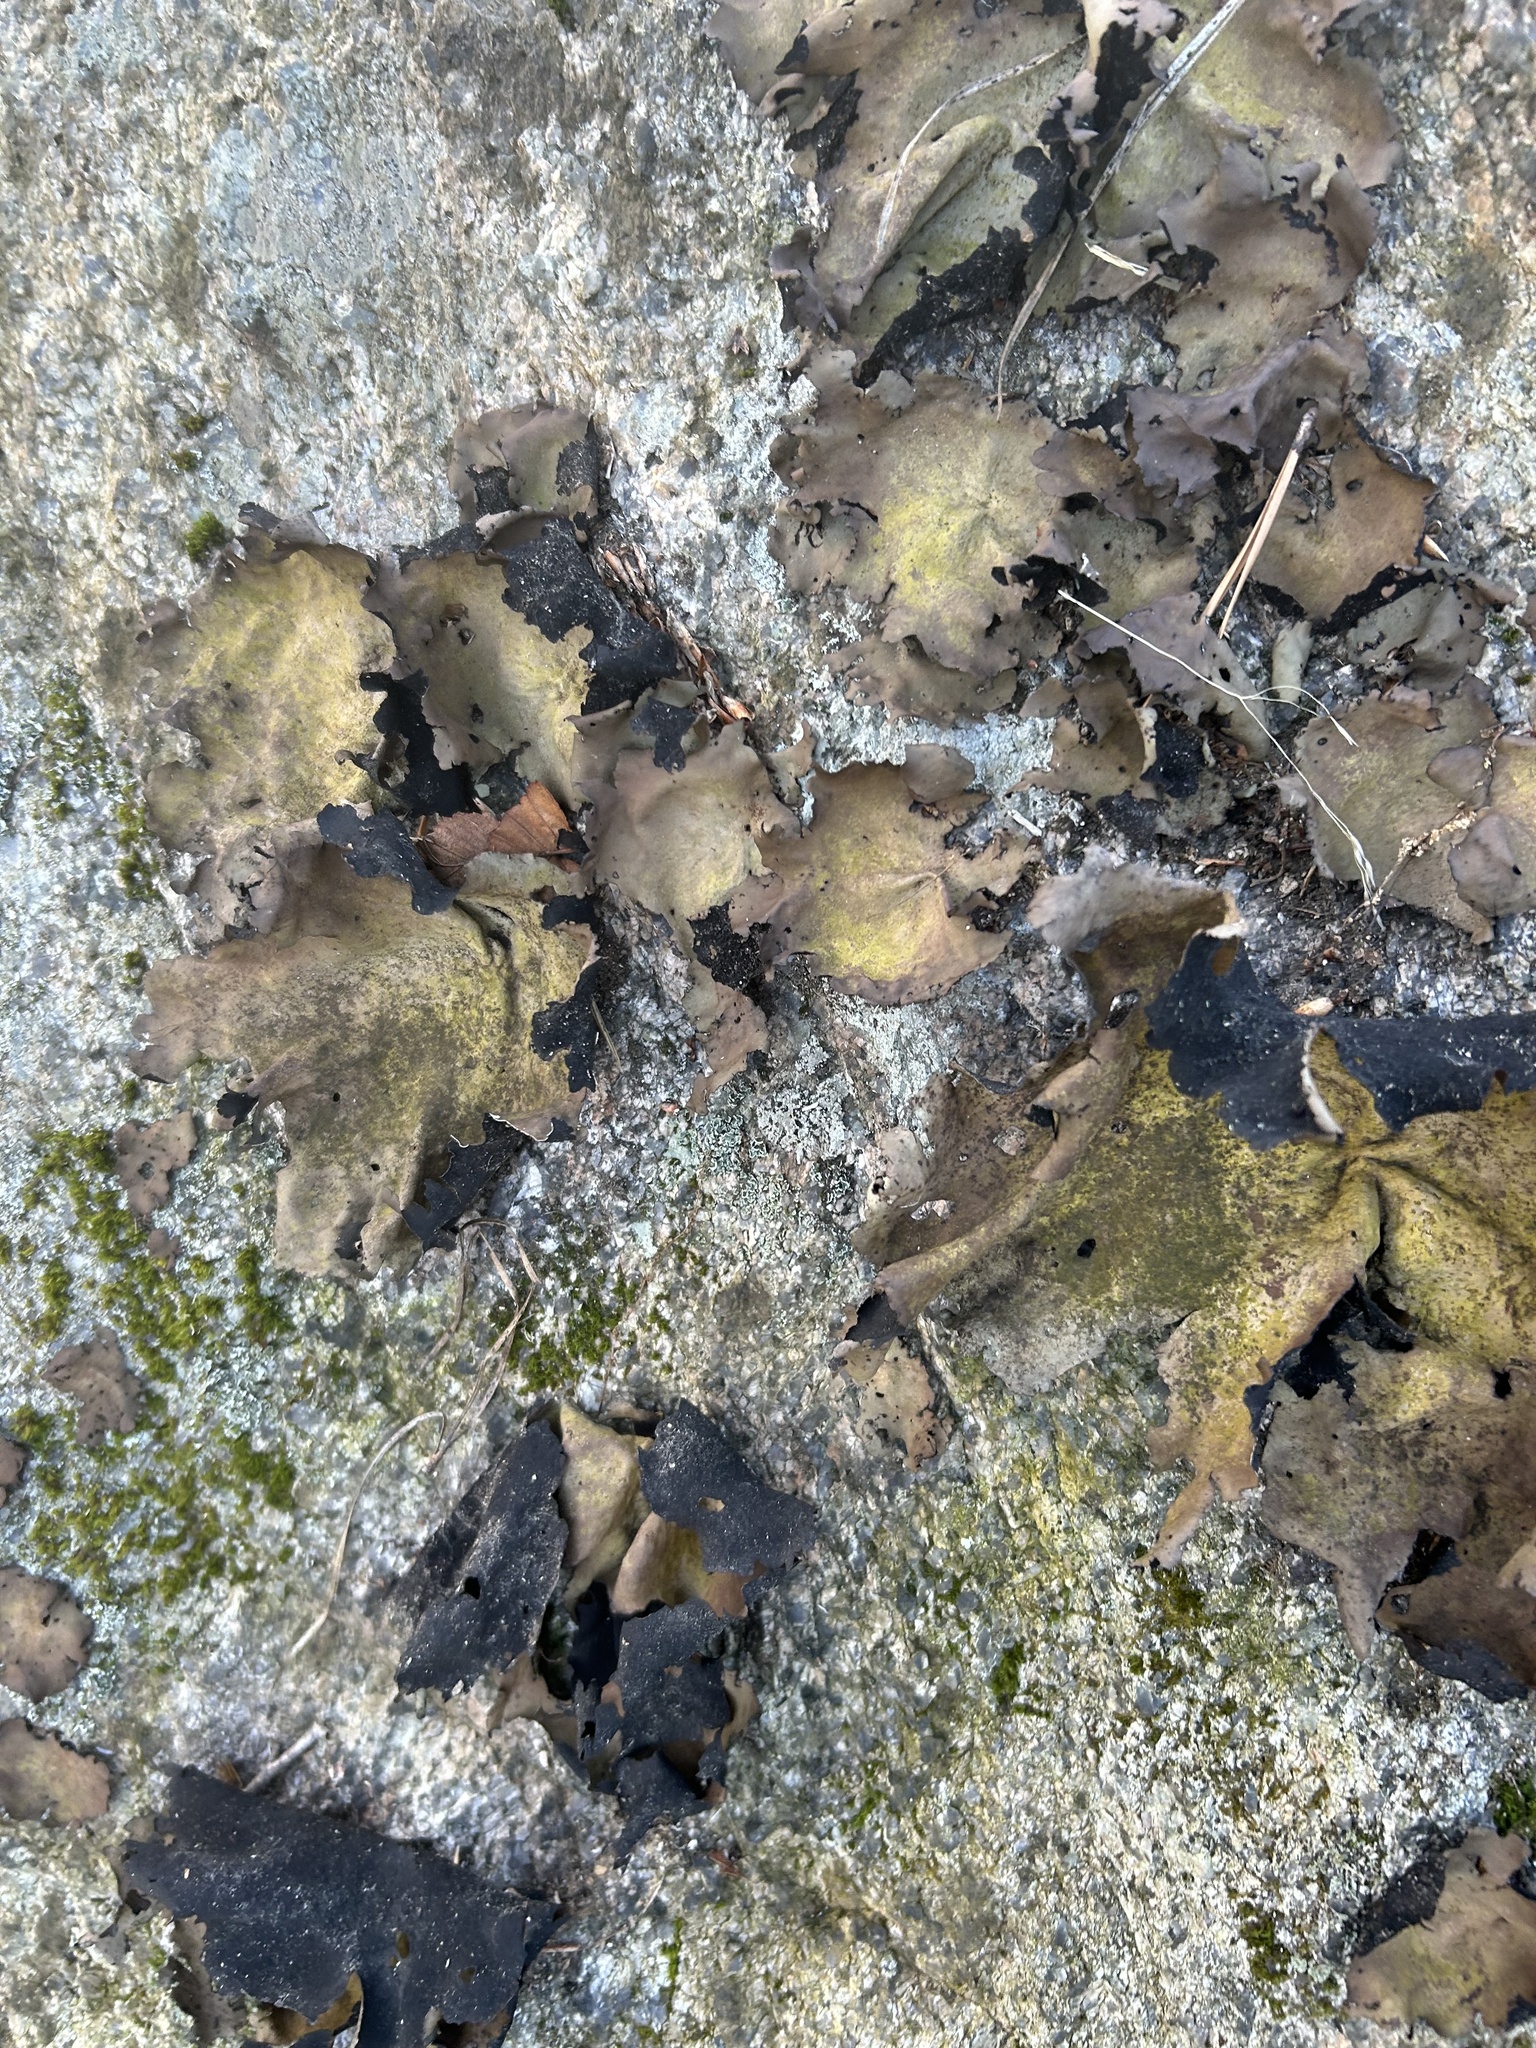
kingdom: Fungi
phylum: Ascomycota
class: Lecanoromycetes
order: Umbilicariales
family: Umbilicariaceae
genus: Umbilicaria
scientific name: Umbilicaria mammulata
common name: Smooth rock tripe
